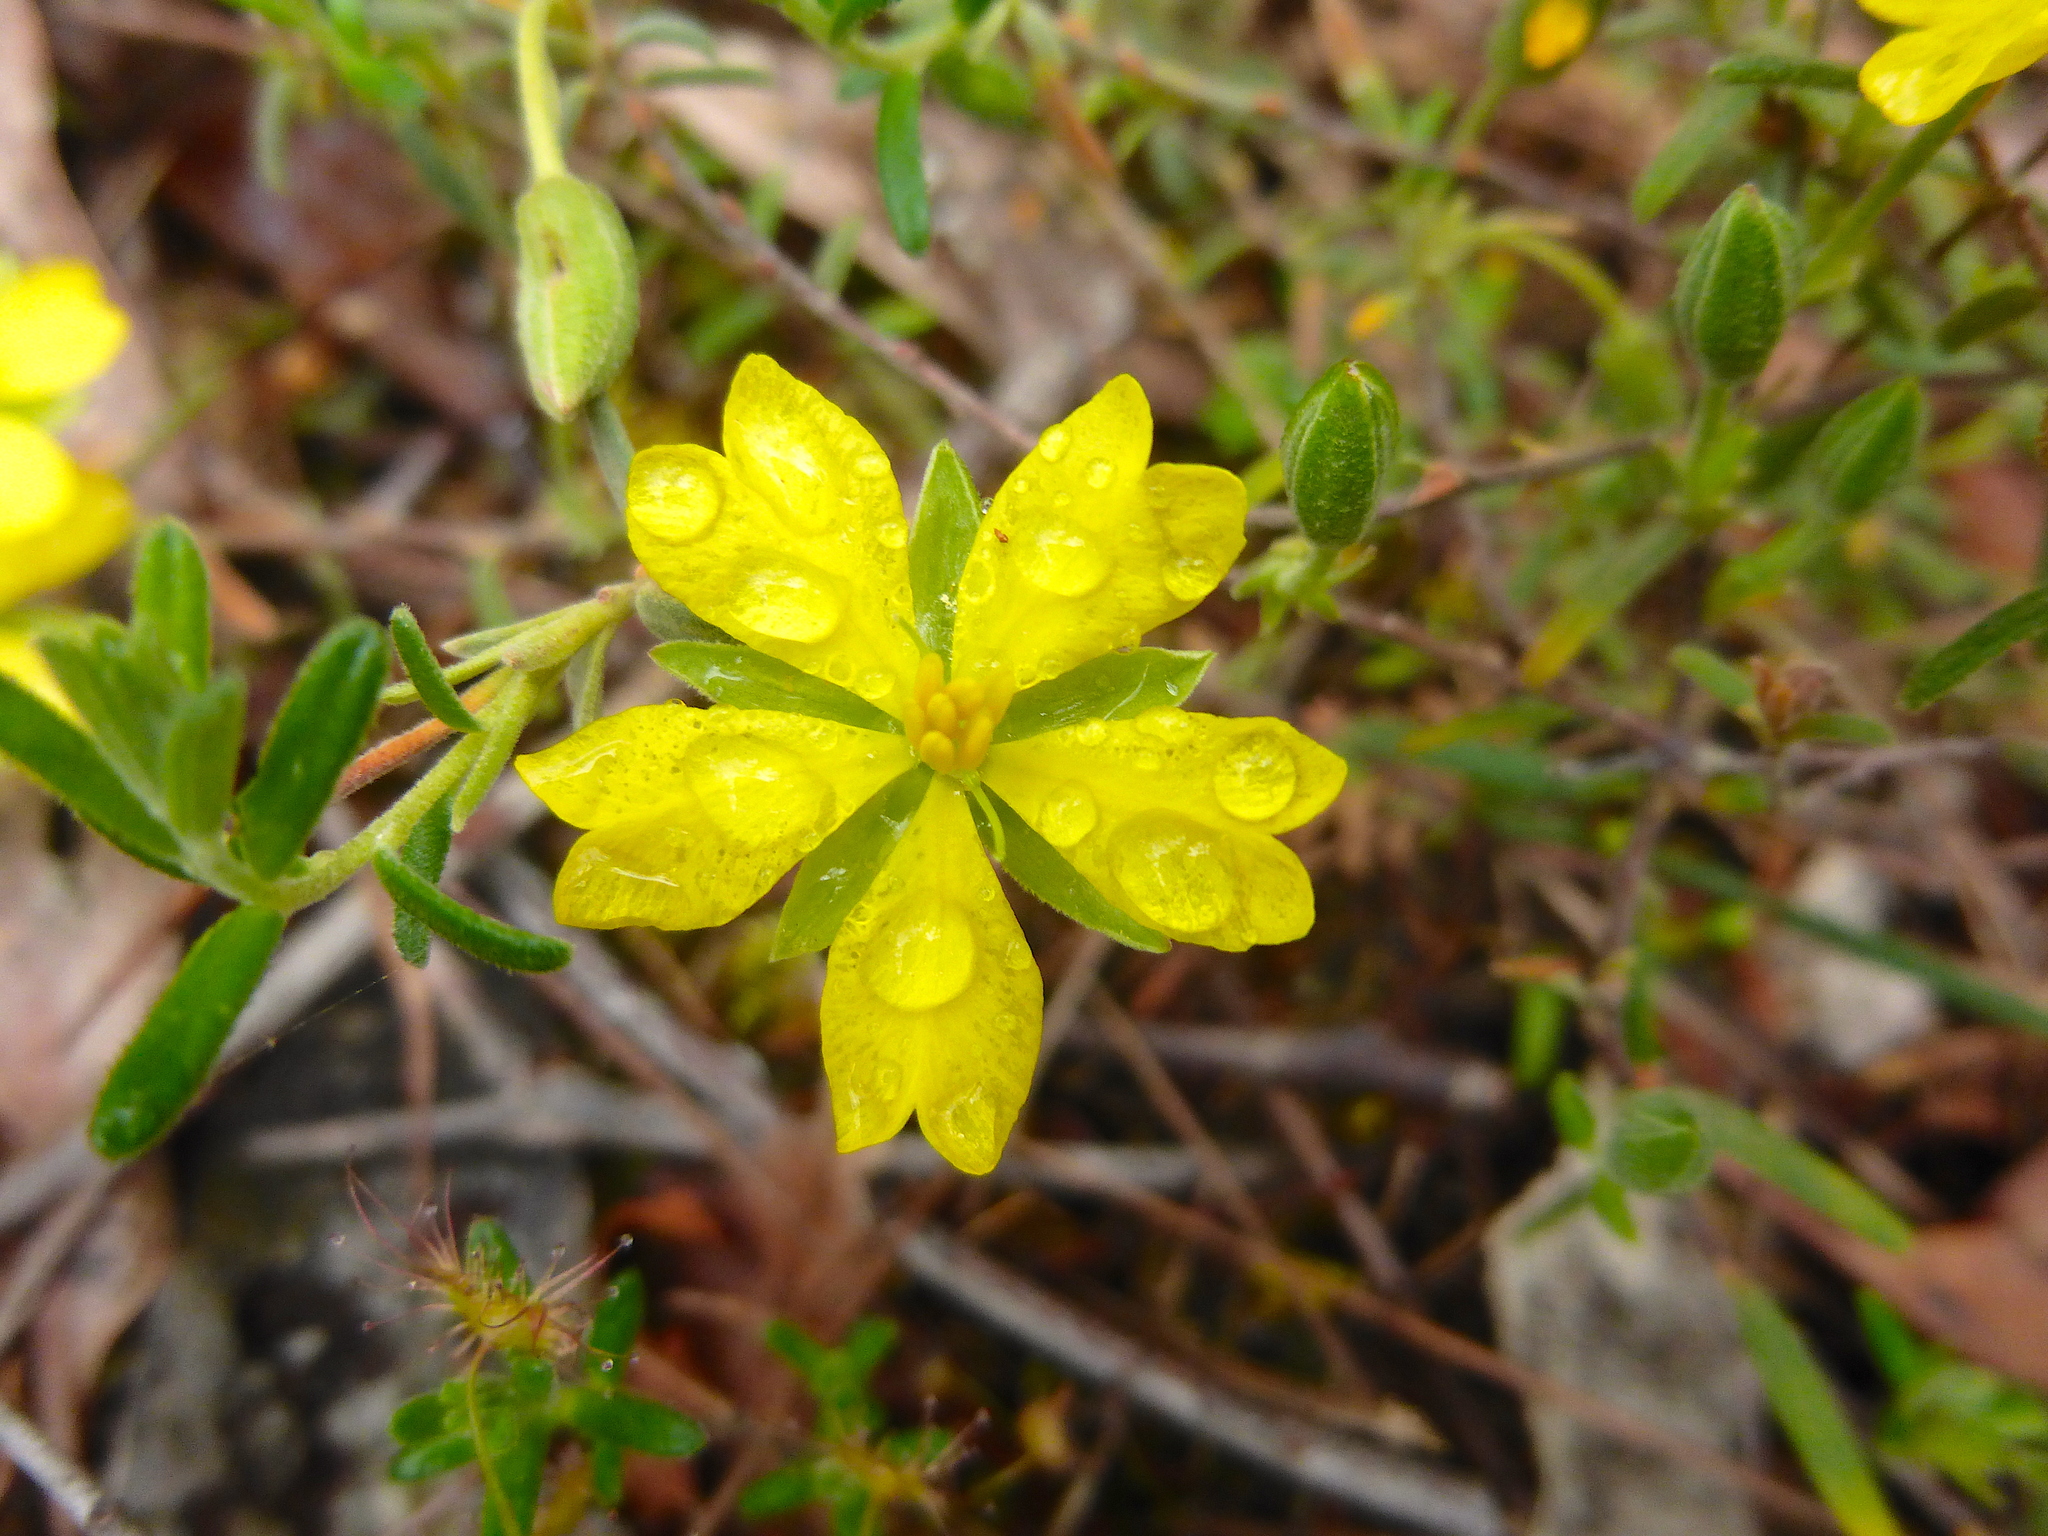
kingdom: Plantae
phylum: Tracheophyta
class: Magnoliopsida
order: Dilleniales
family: Dilleniaceae
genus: Hibbertia
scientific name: Hibbertia australis
